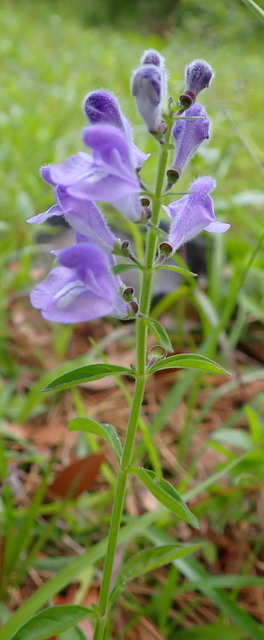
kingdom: Plantae
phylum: Tracheophyta
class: Magnoliopsida
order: Lamiales
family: Lamiaceae
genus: Scutellaria
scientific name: Scutellaria integrifolia
